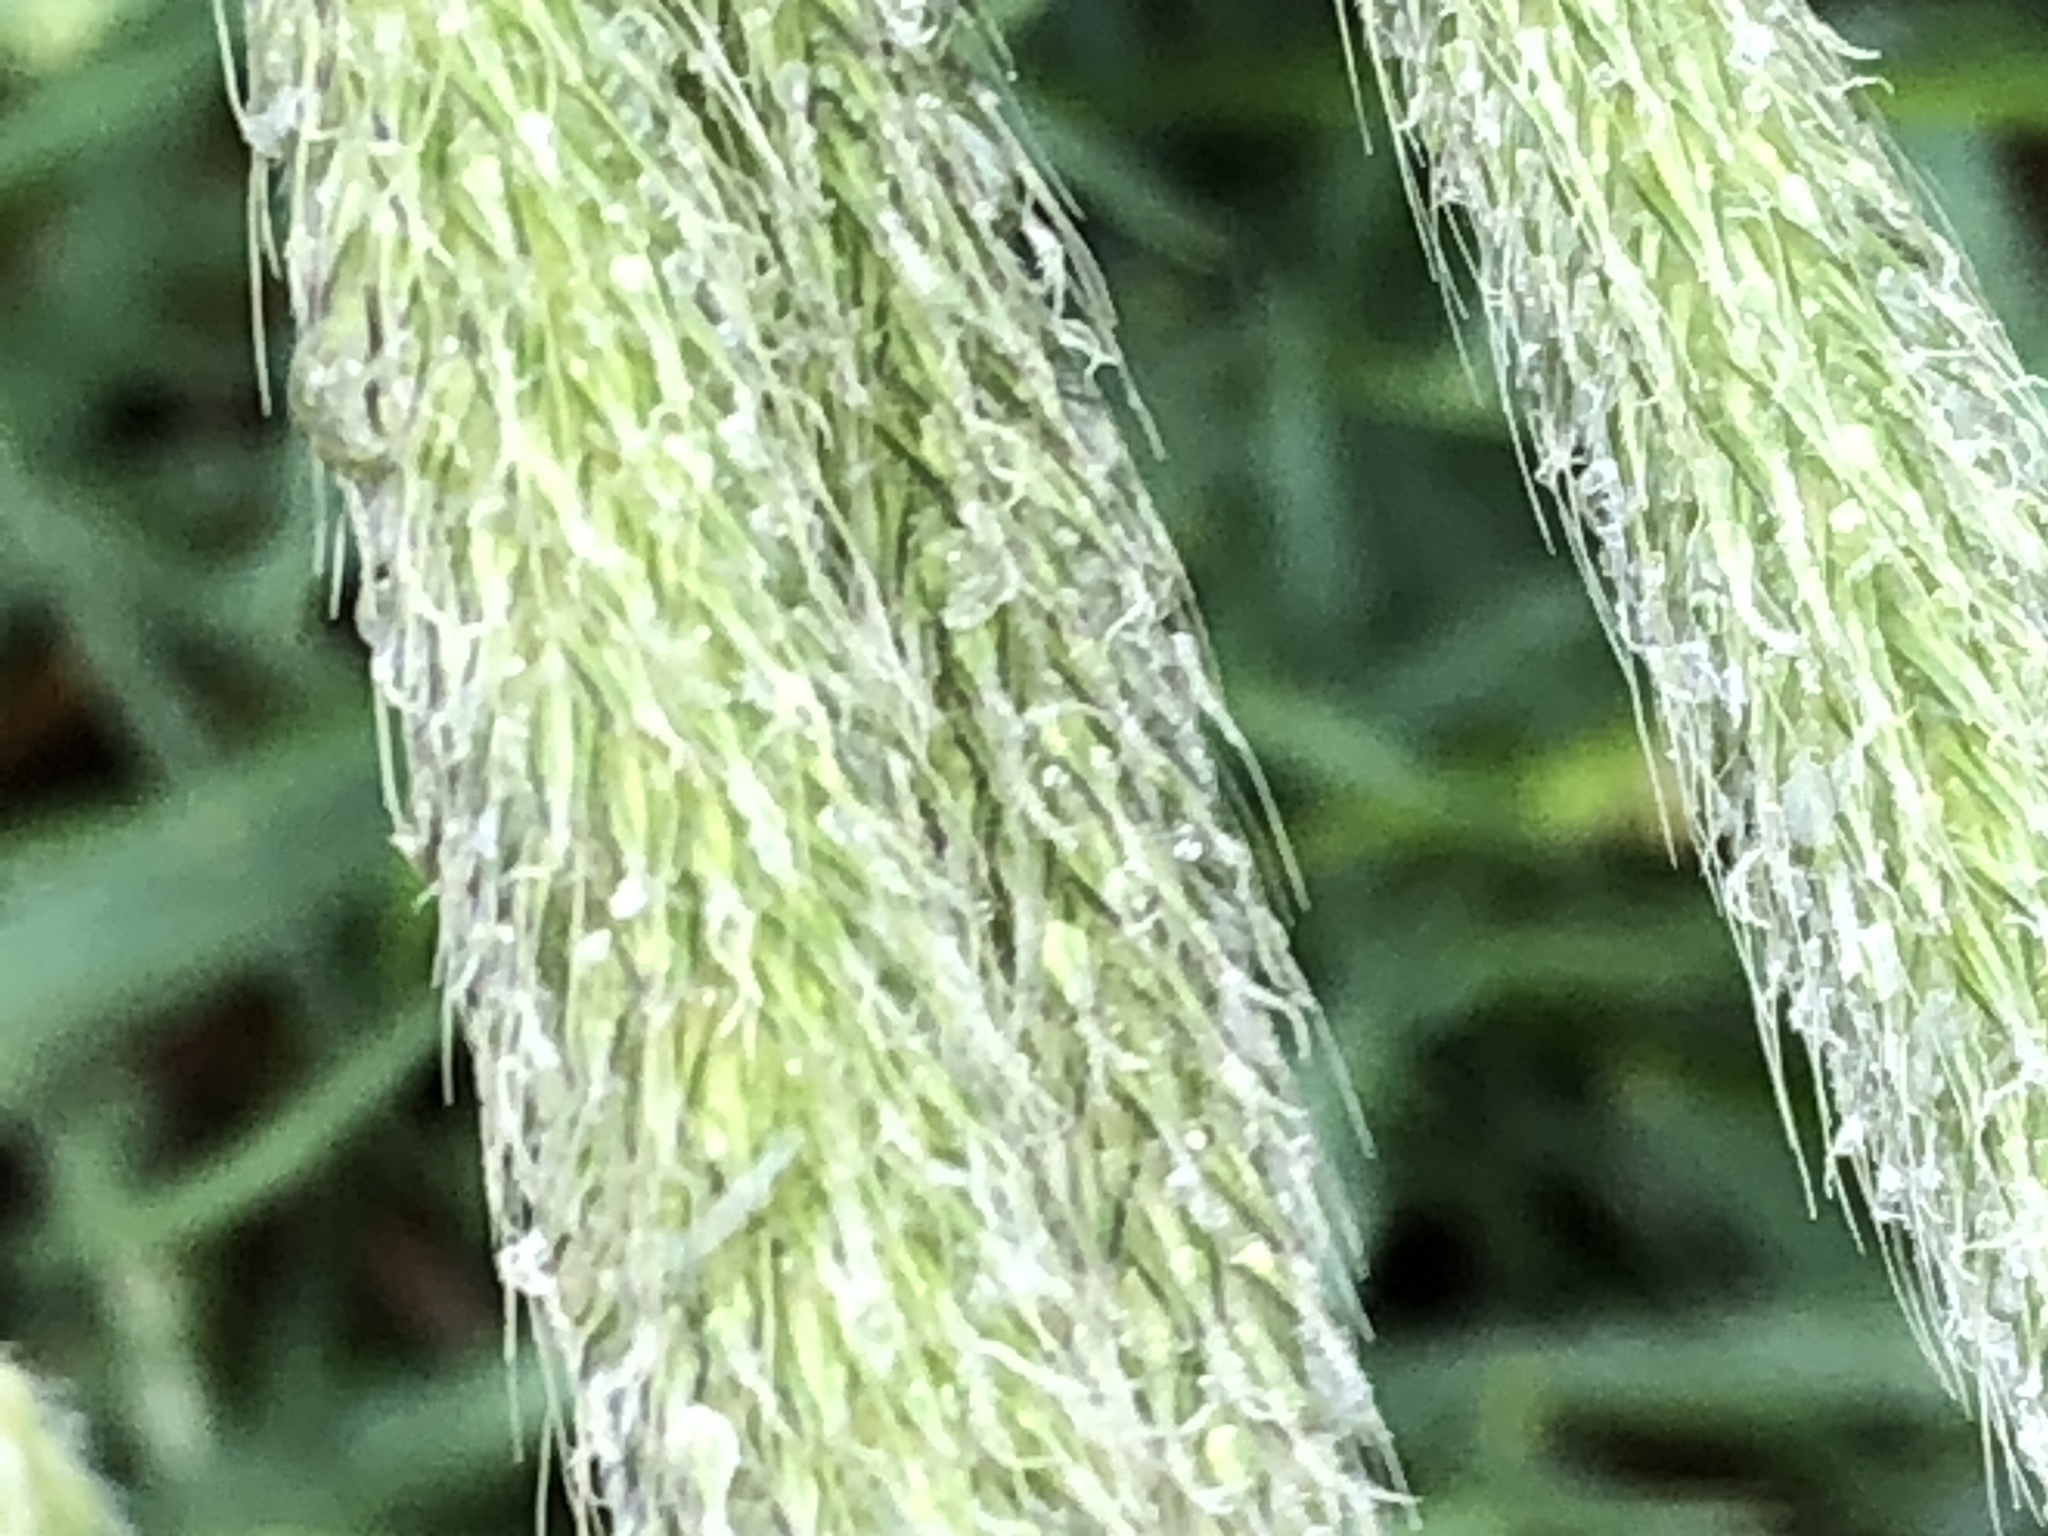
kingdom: Plantae
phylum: Tracheophyta
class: Liliopsida
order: Poales
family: Poaceae
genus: Alopecurus
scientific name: Alopecurus pratensis
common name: Meadow foxtail
